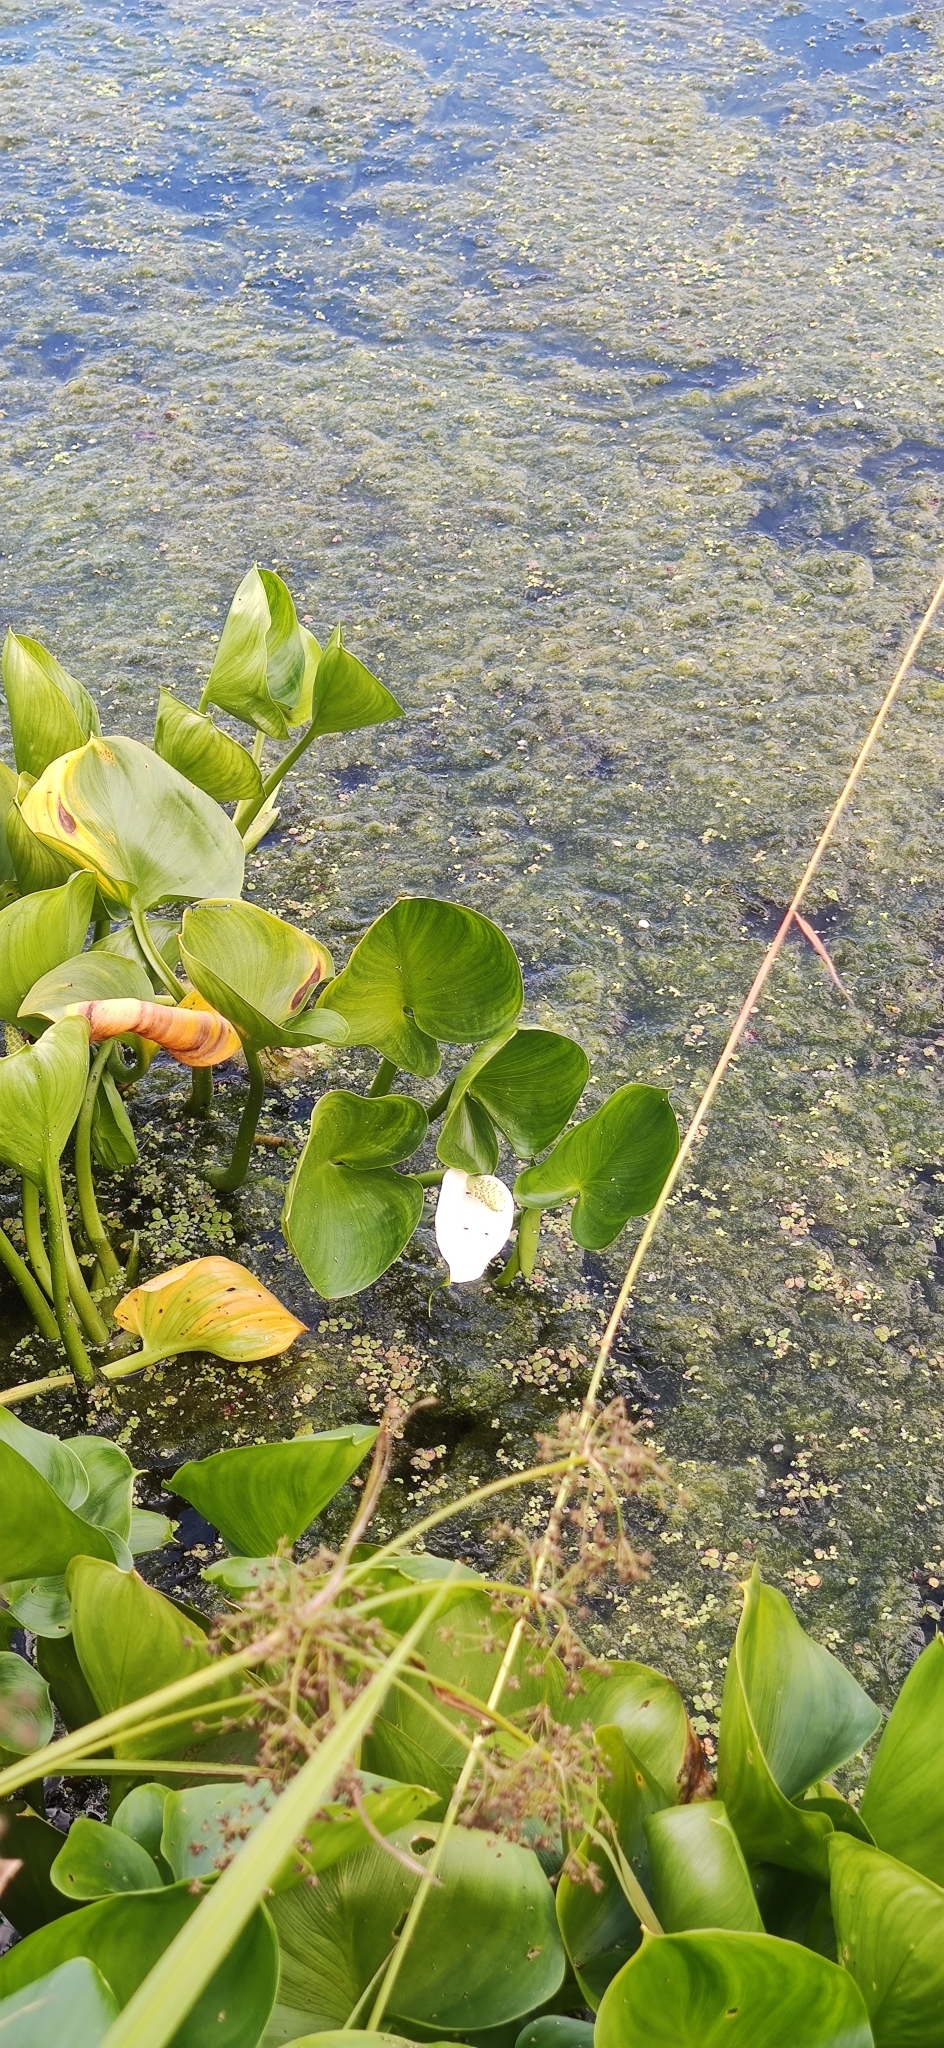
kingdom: Plantae
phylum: Tracheophyta
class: Liliopsida
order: Alismatales
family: Araceae
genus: Calla
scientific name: Calla palustris
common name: Bog arum
